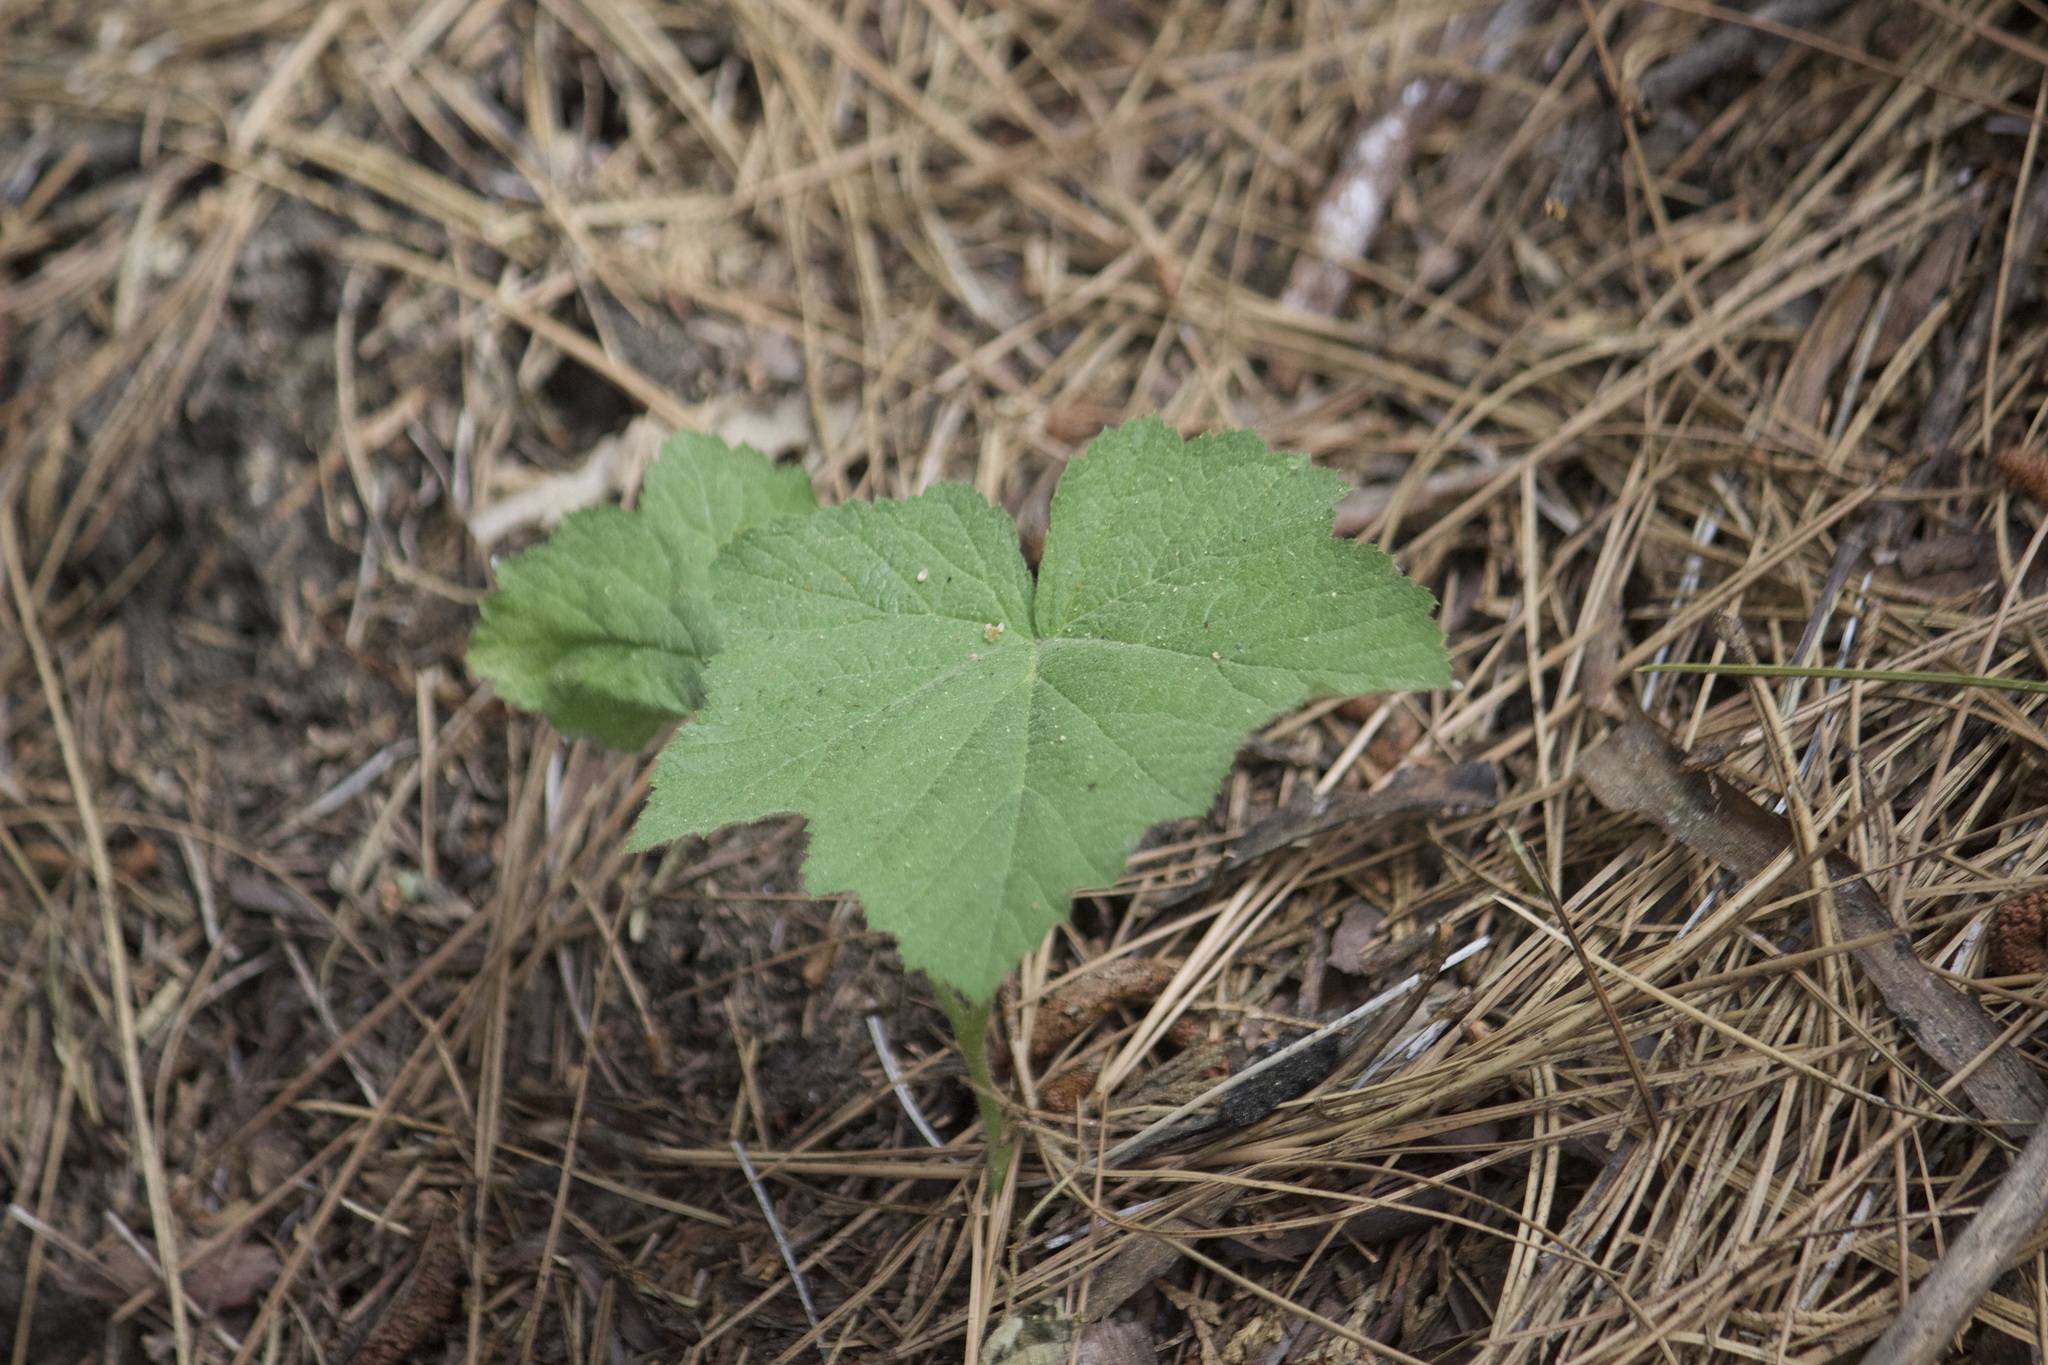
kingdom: Plantae
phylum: Tracheophyta
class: Magnoliopsida
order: Rosales
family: Rosaceae
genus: Rubus
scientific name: Rubus parviflorus
